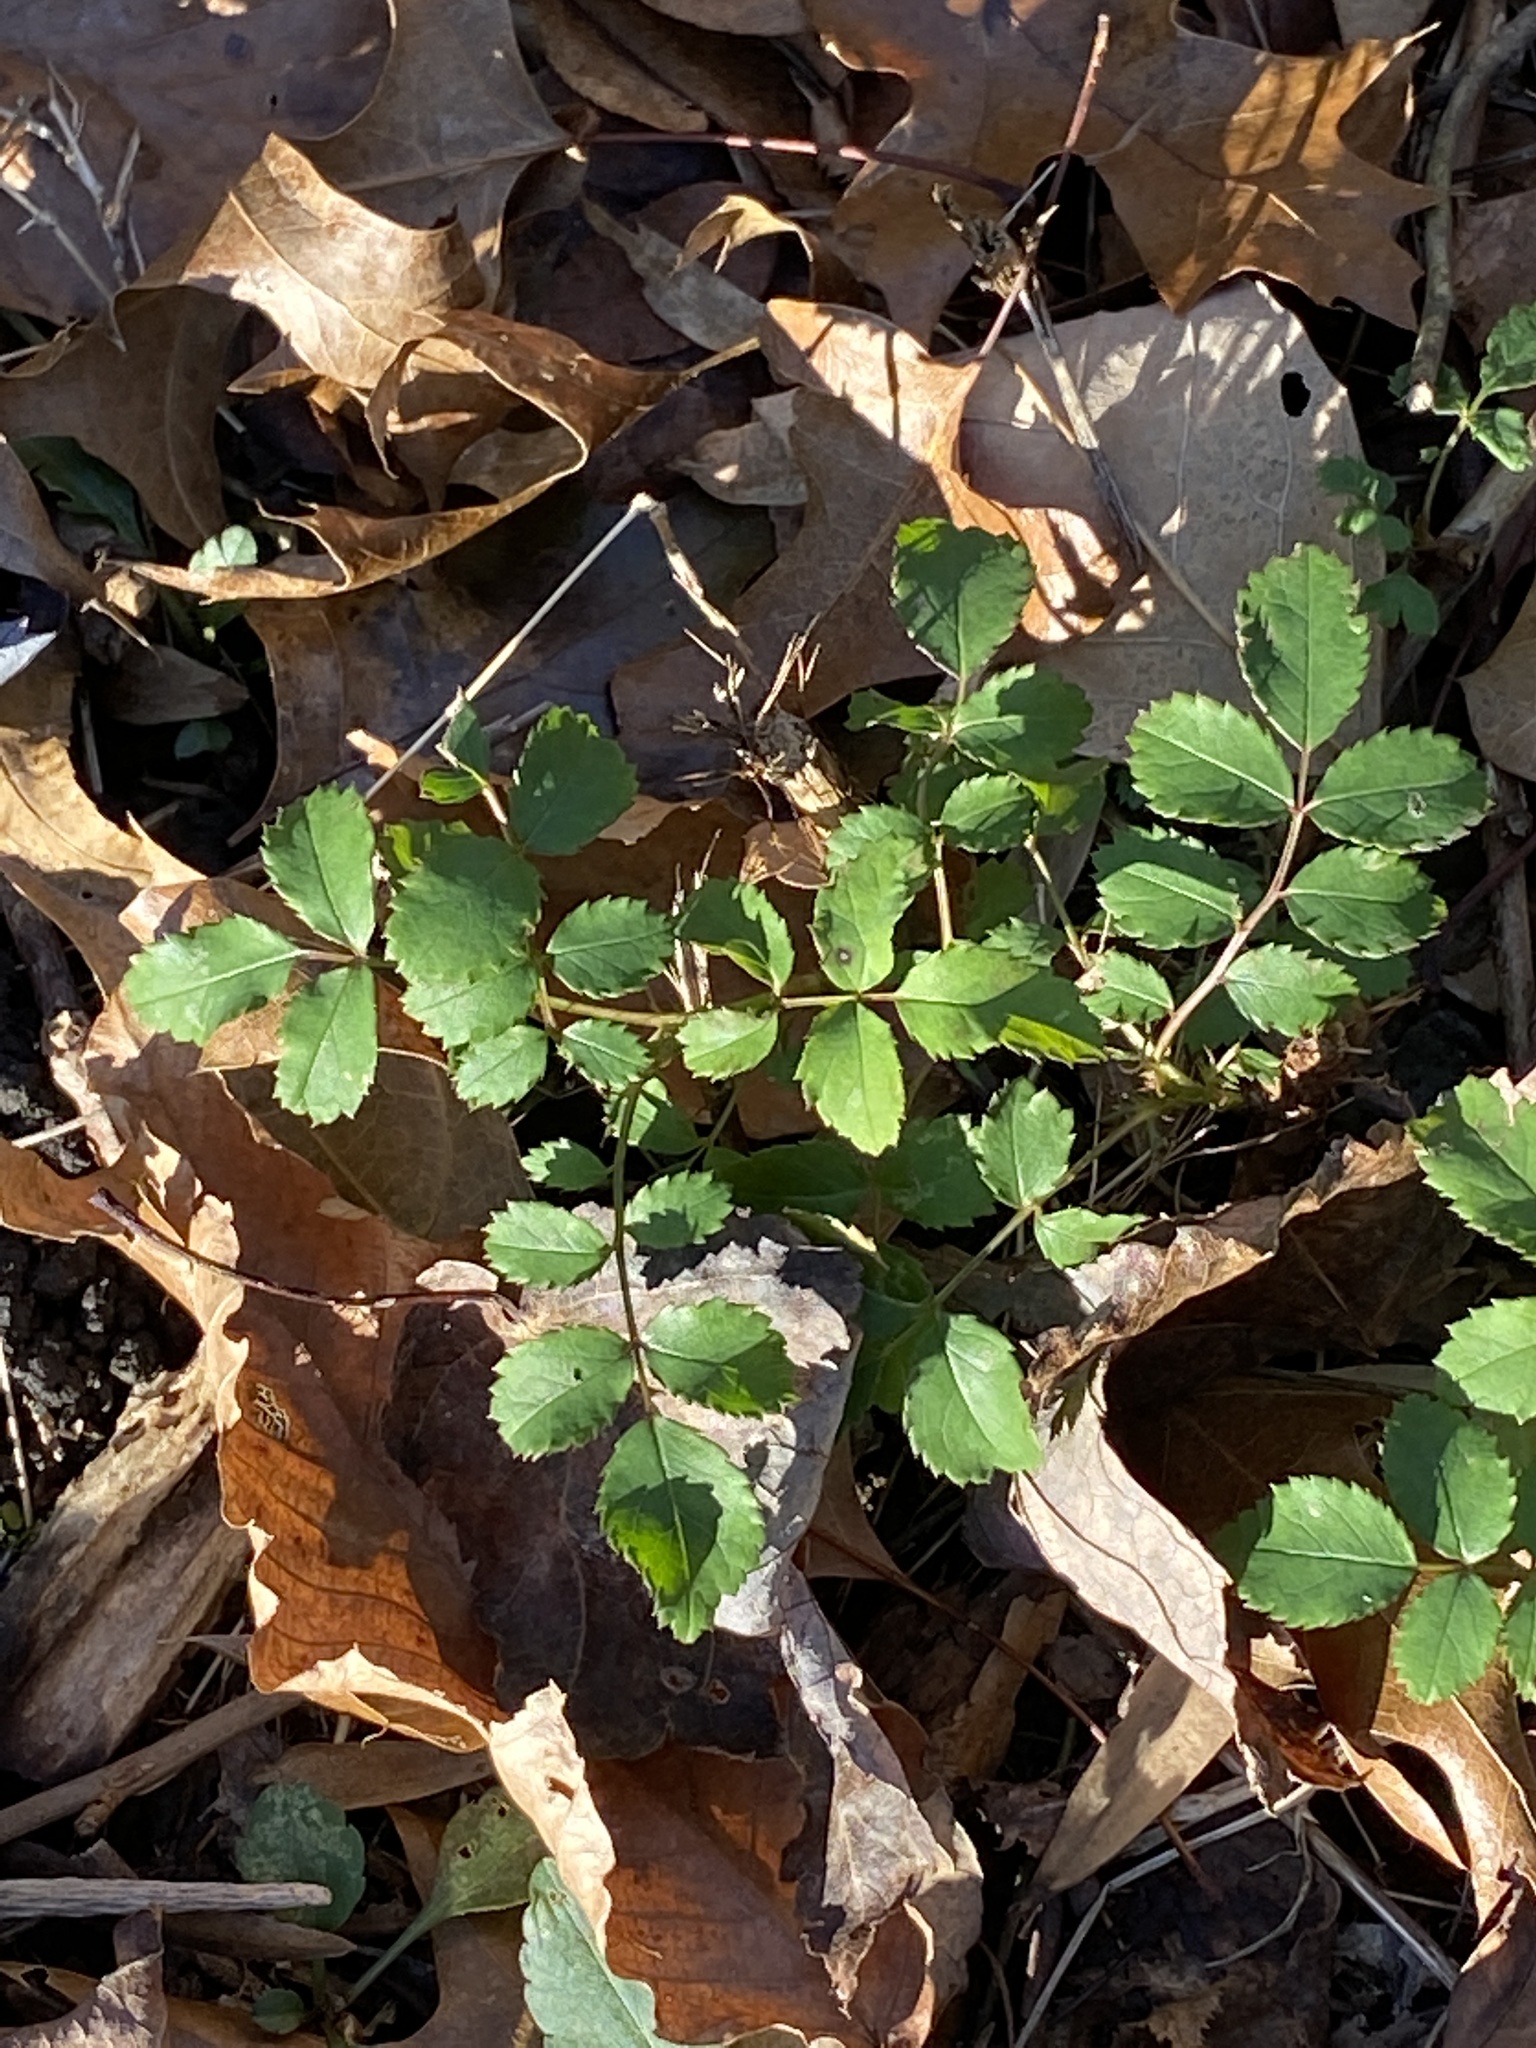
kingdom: Plantae
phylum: Tracheophyta
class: Magnoliopsida
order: Rosales
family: Rosaceae
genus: Rosa
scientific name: Rosa multiflora
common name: Multiflora rose
